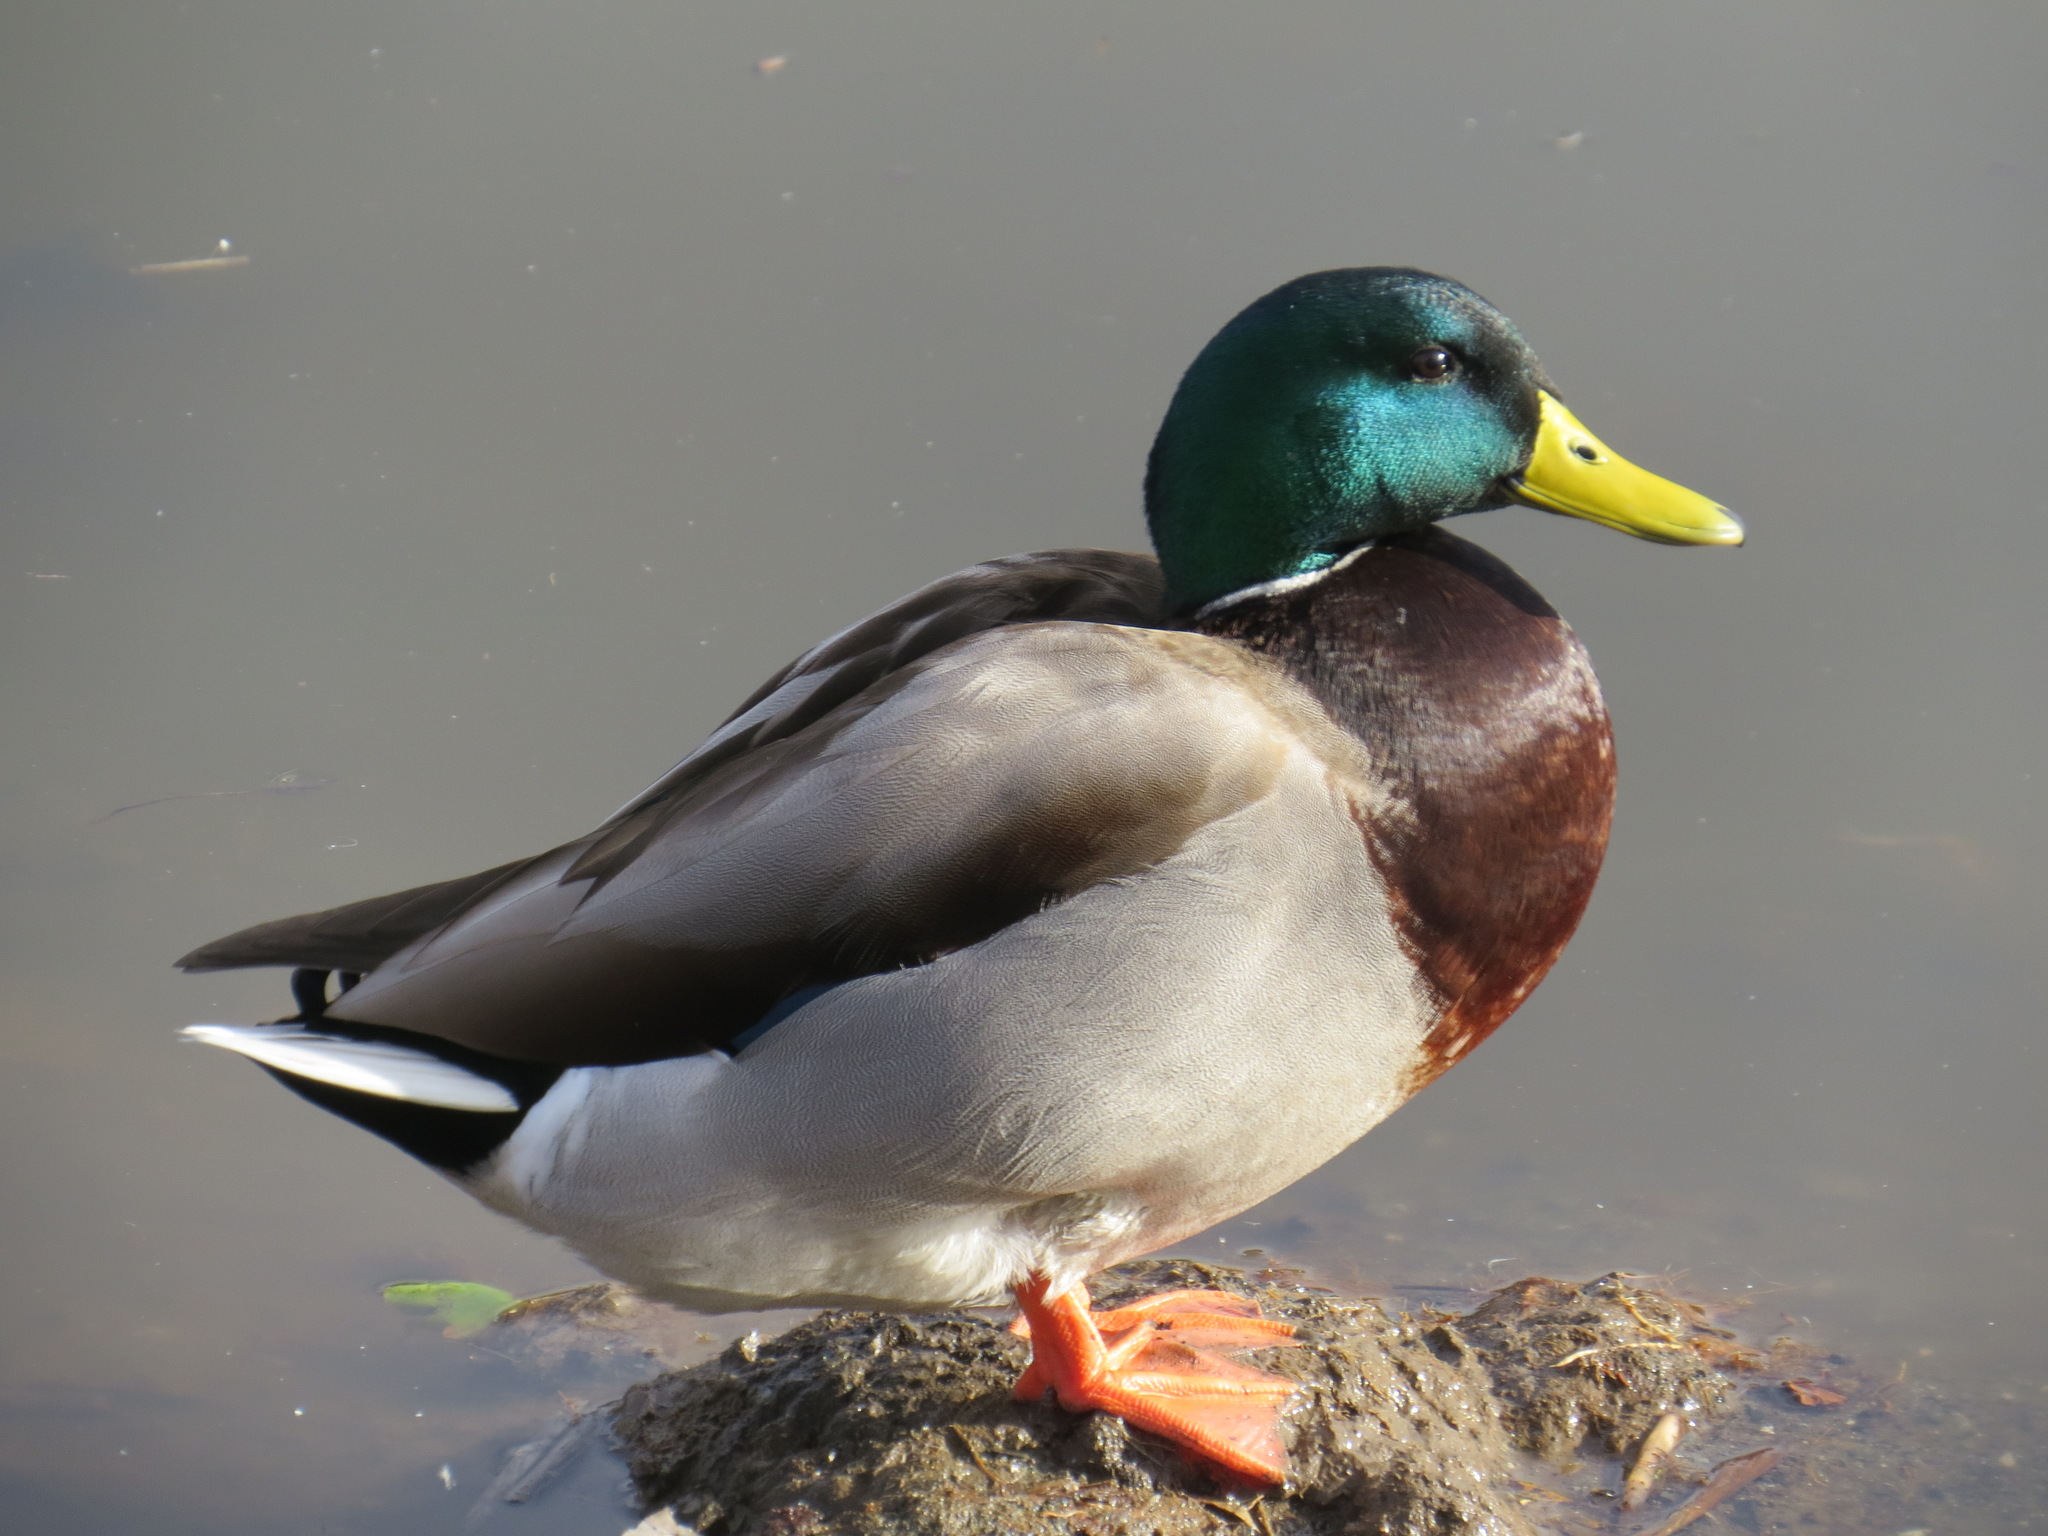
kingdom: Animalia
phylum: Chordata
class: Aves
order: Anseriformes
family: Anatidae
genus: Anas
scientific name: Anas platyrhynchos
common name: Mallard
